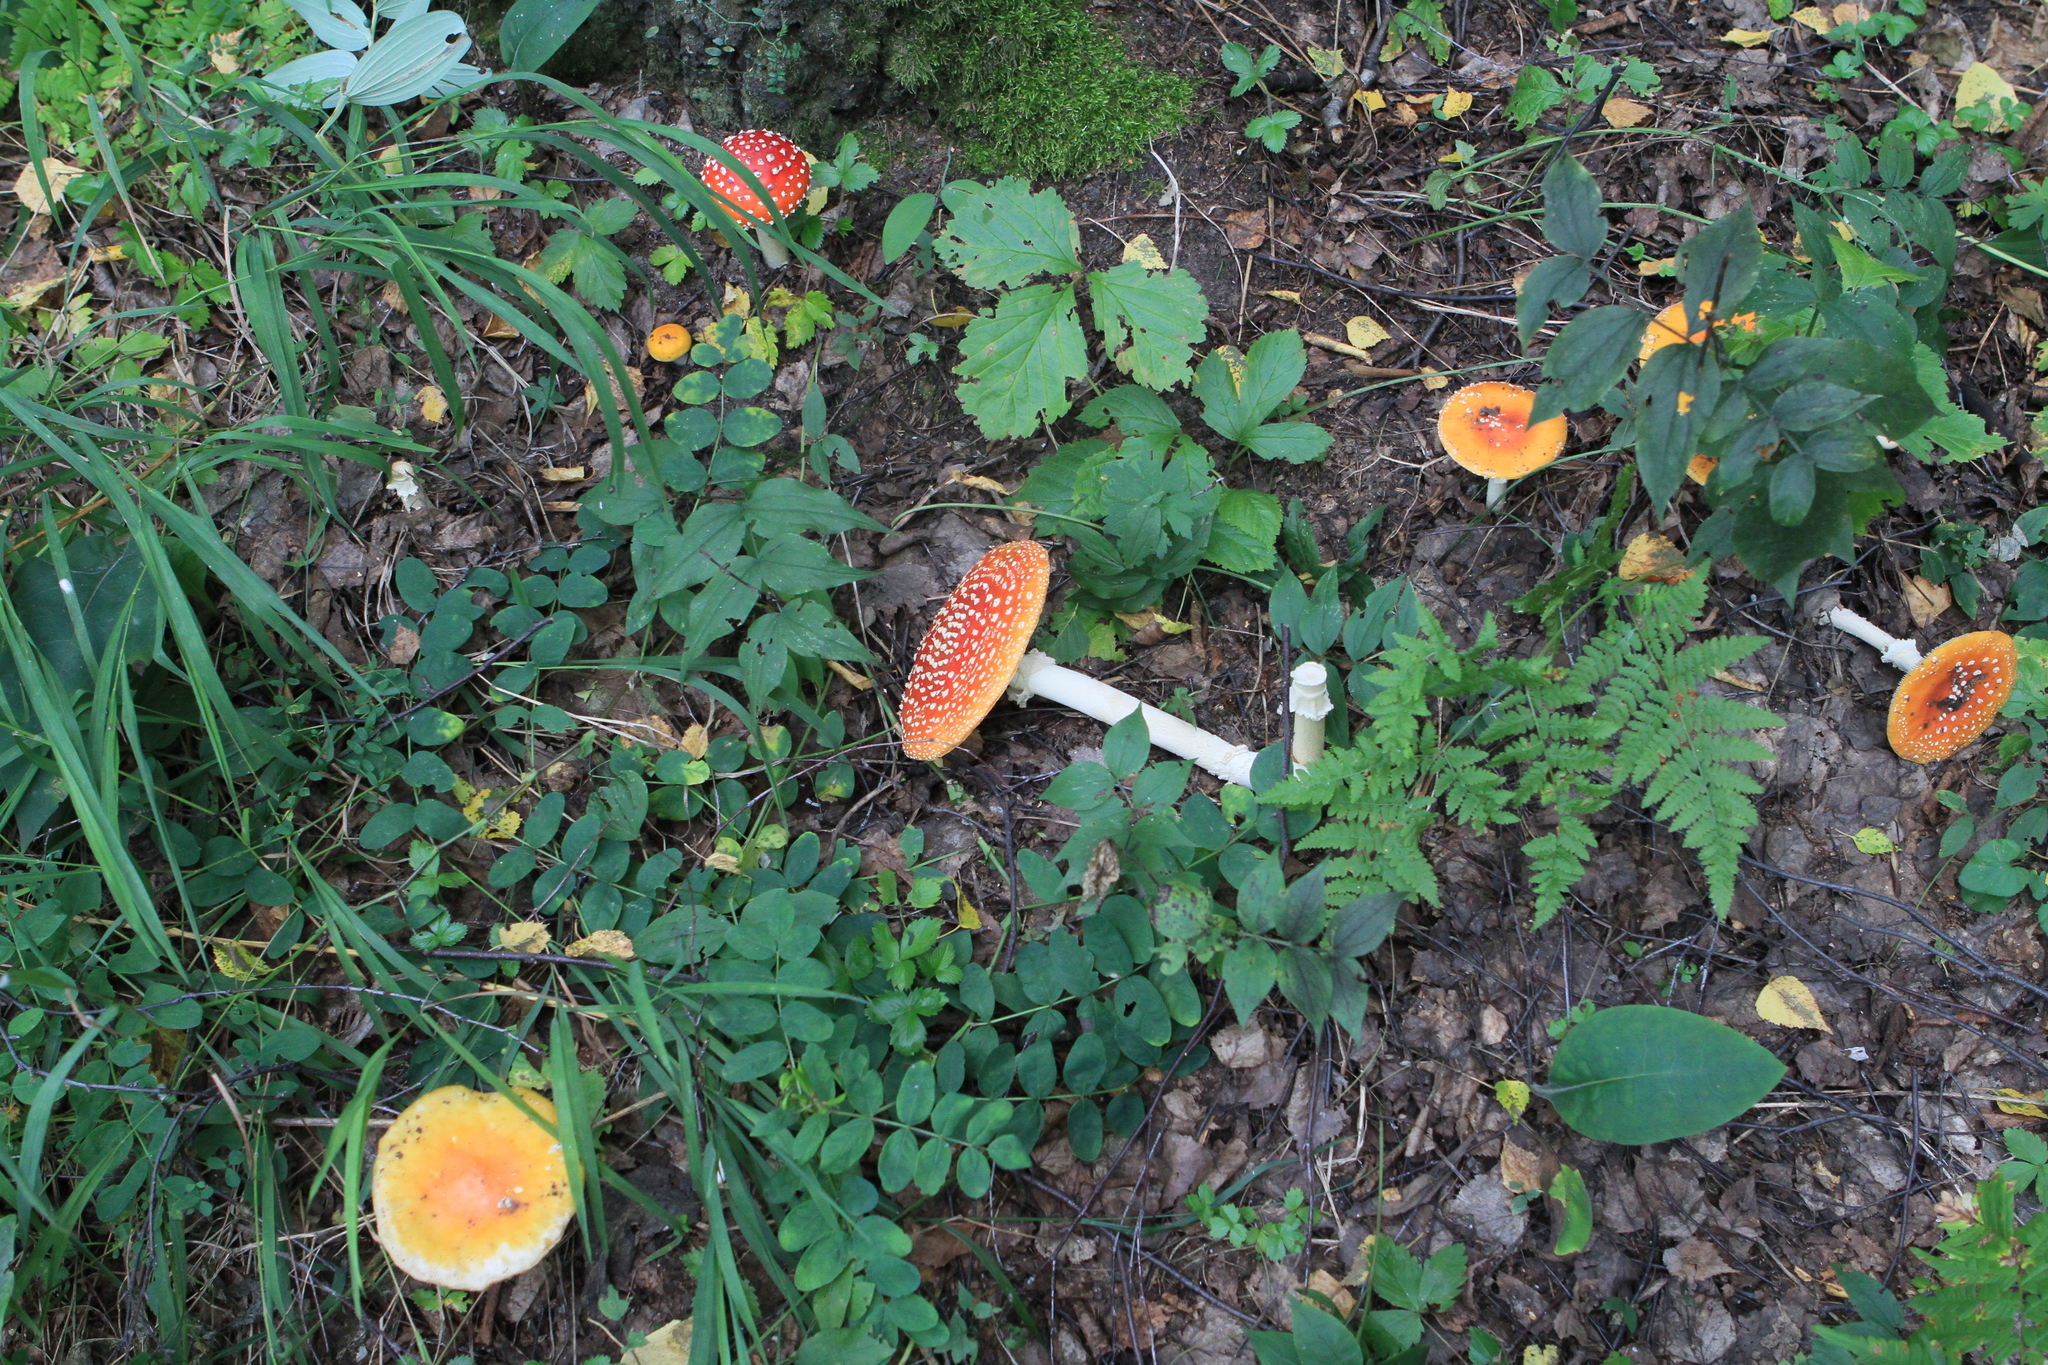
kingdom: Fungi
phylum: Basidiomycota
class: Agaricomycetes
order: Agaricales
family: Amanitaceae
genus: Amanita
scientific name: Amanita muscaria
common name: Fly agaric
